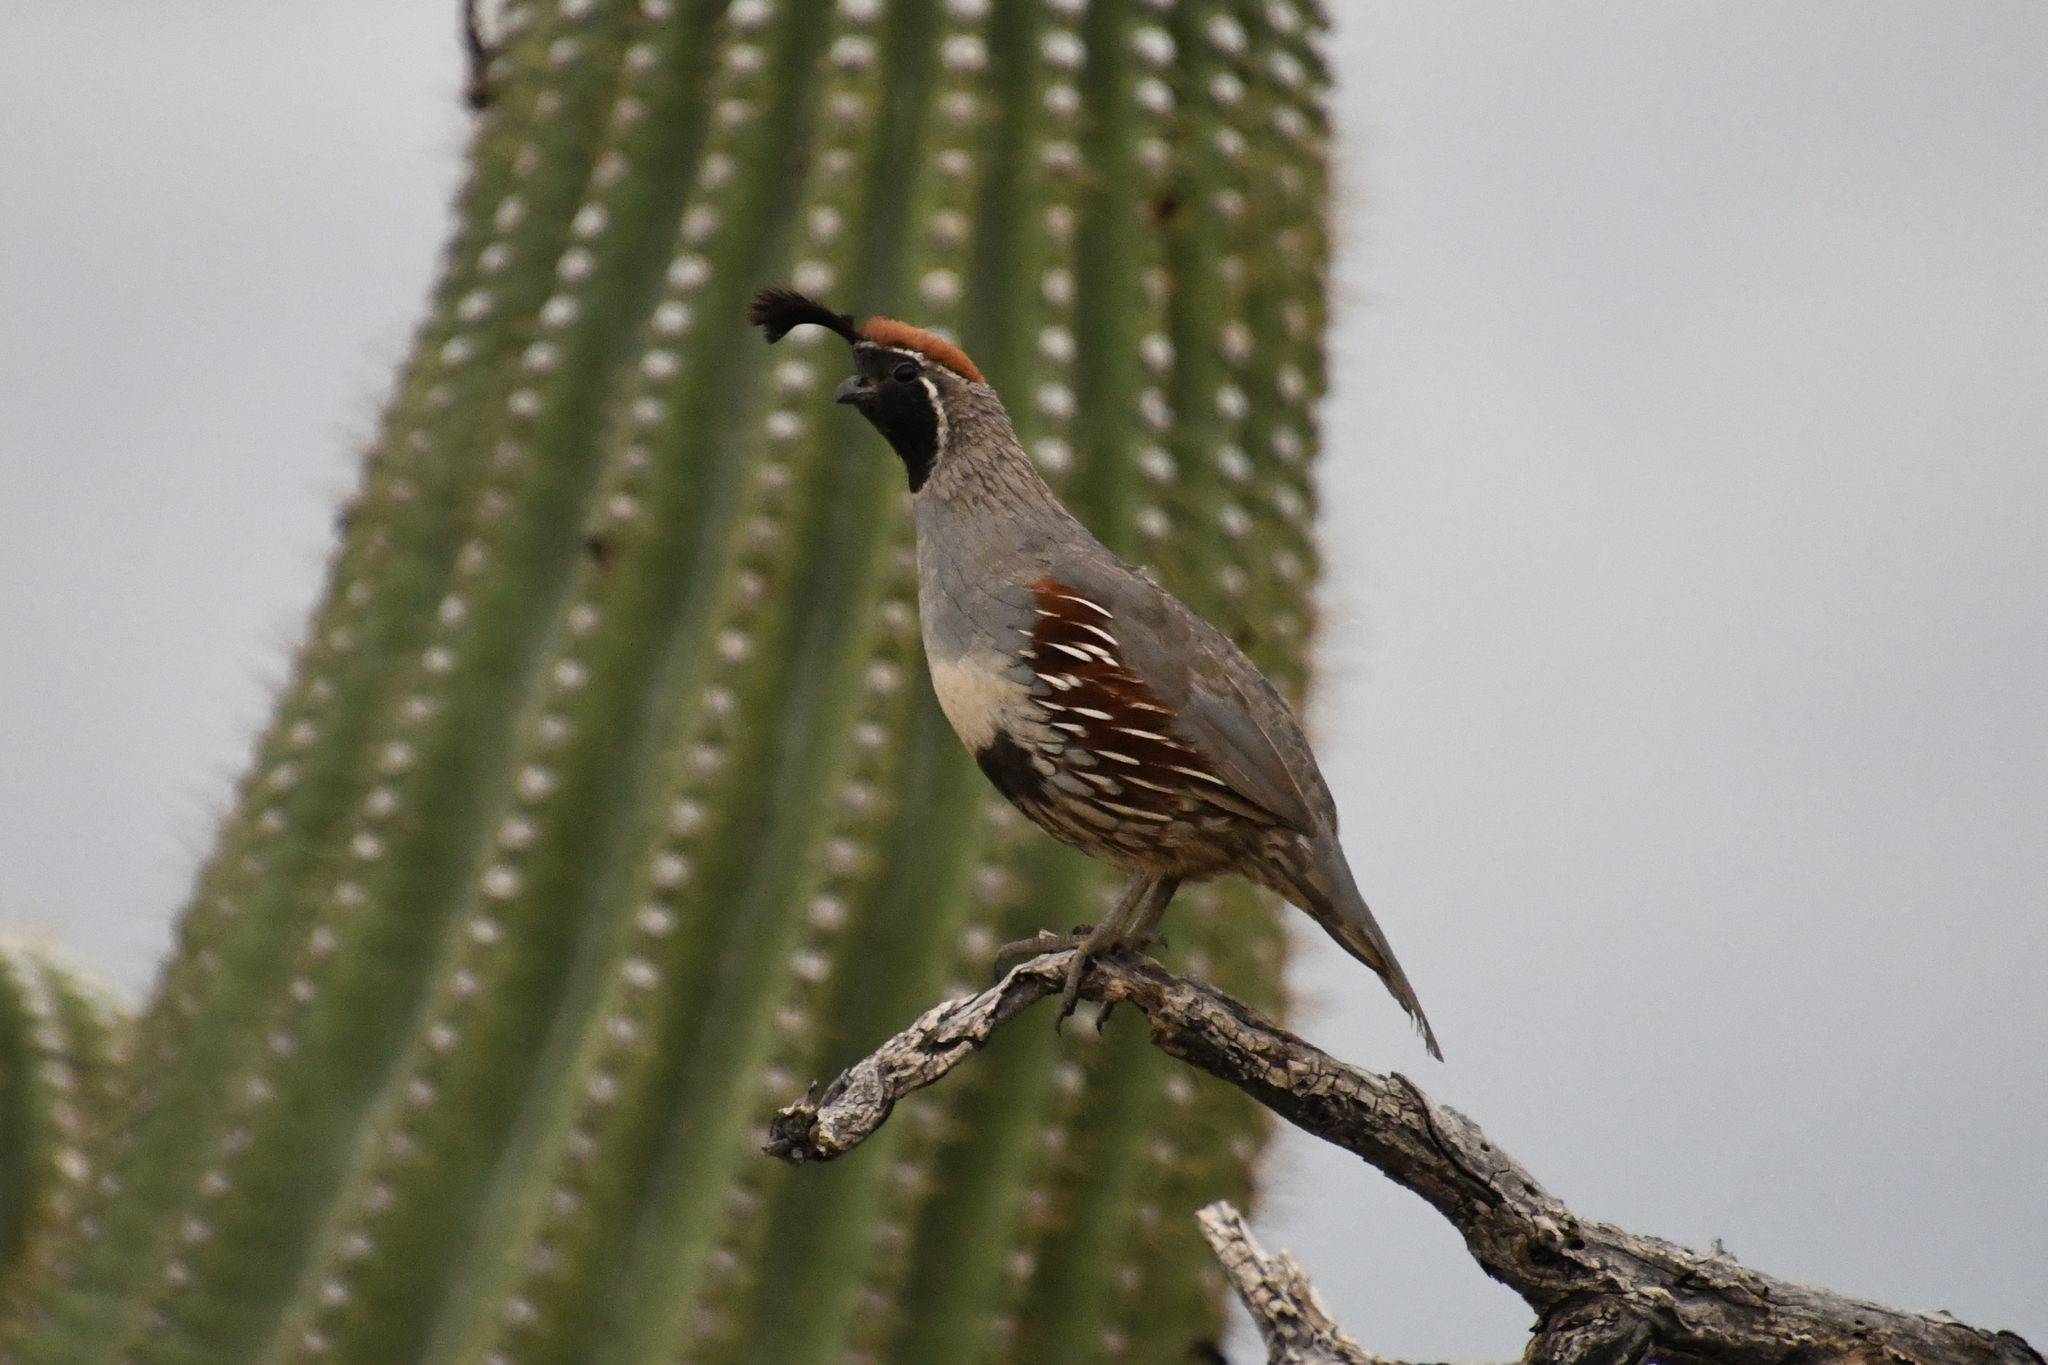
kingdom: Animalia
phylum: Chordata
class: Aves
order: Galliformes
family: Odontophoridae
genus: Callipepla
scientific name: Callipepla gambelii
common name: Gambel's quail
